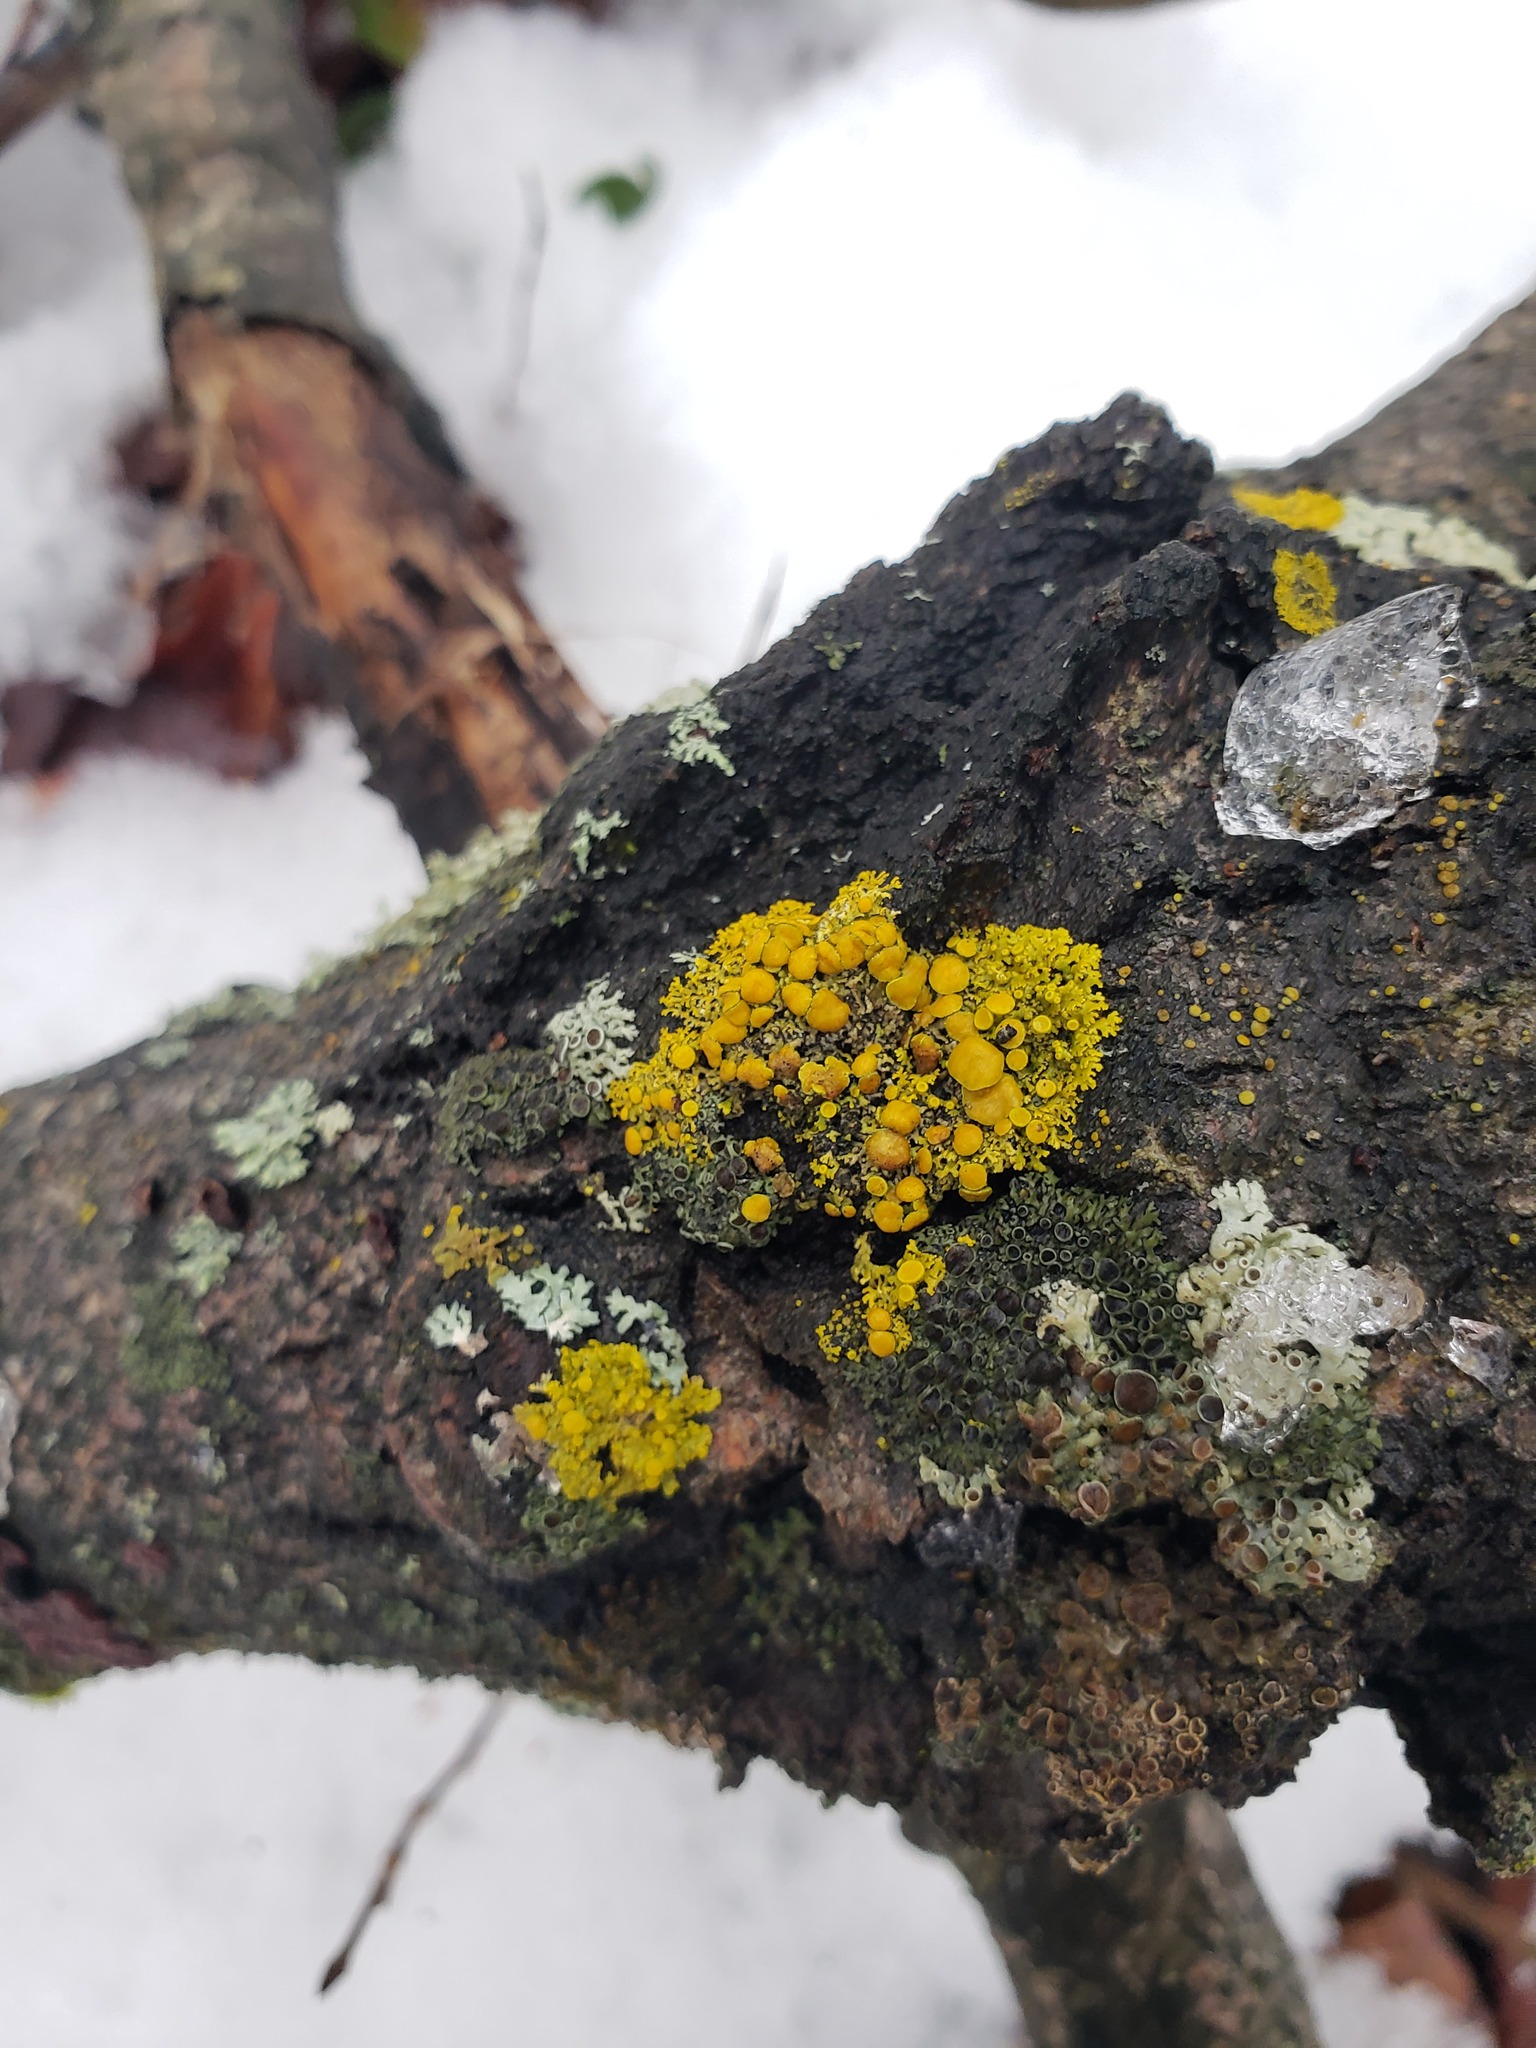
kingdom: Fungi
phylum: Ascomycota
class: Lecanoromycetes
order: Teloschistales
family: Teloschistaceae
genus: Gallowayella
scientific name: Gallowayella hasseana
